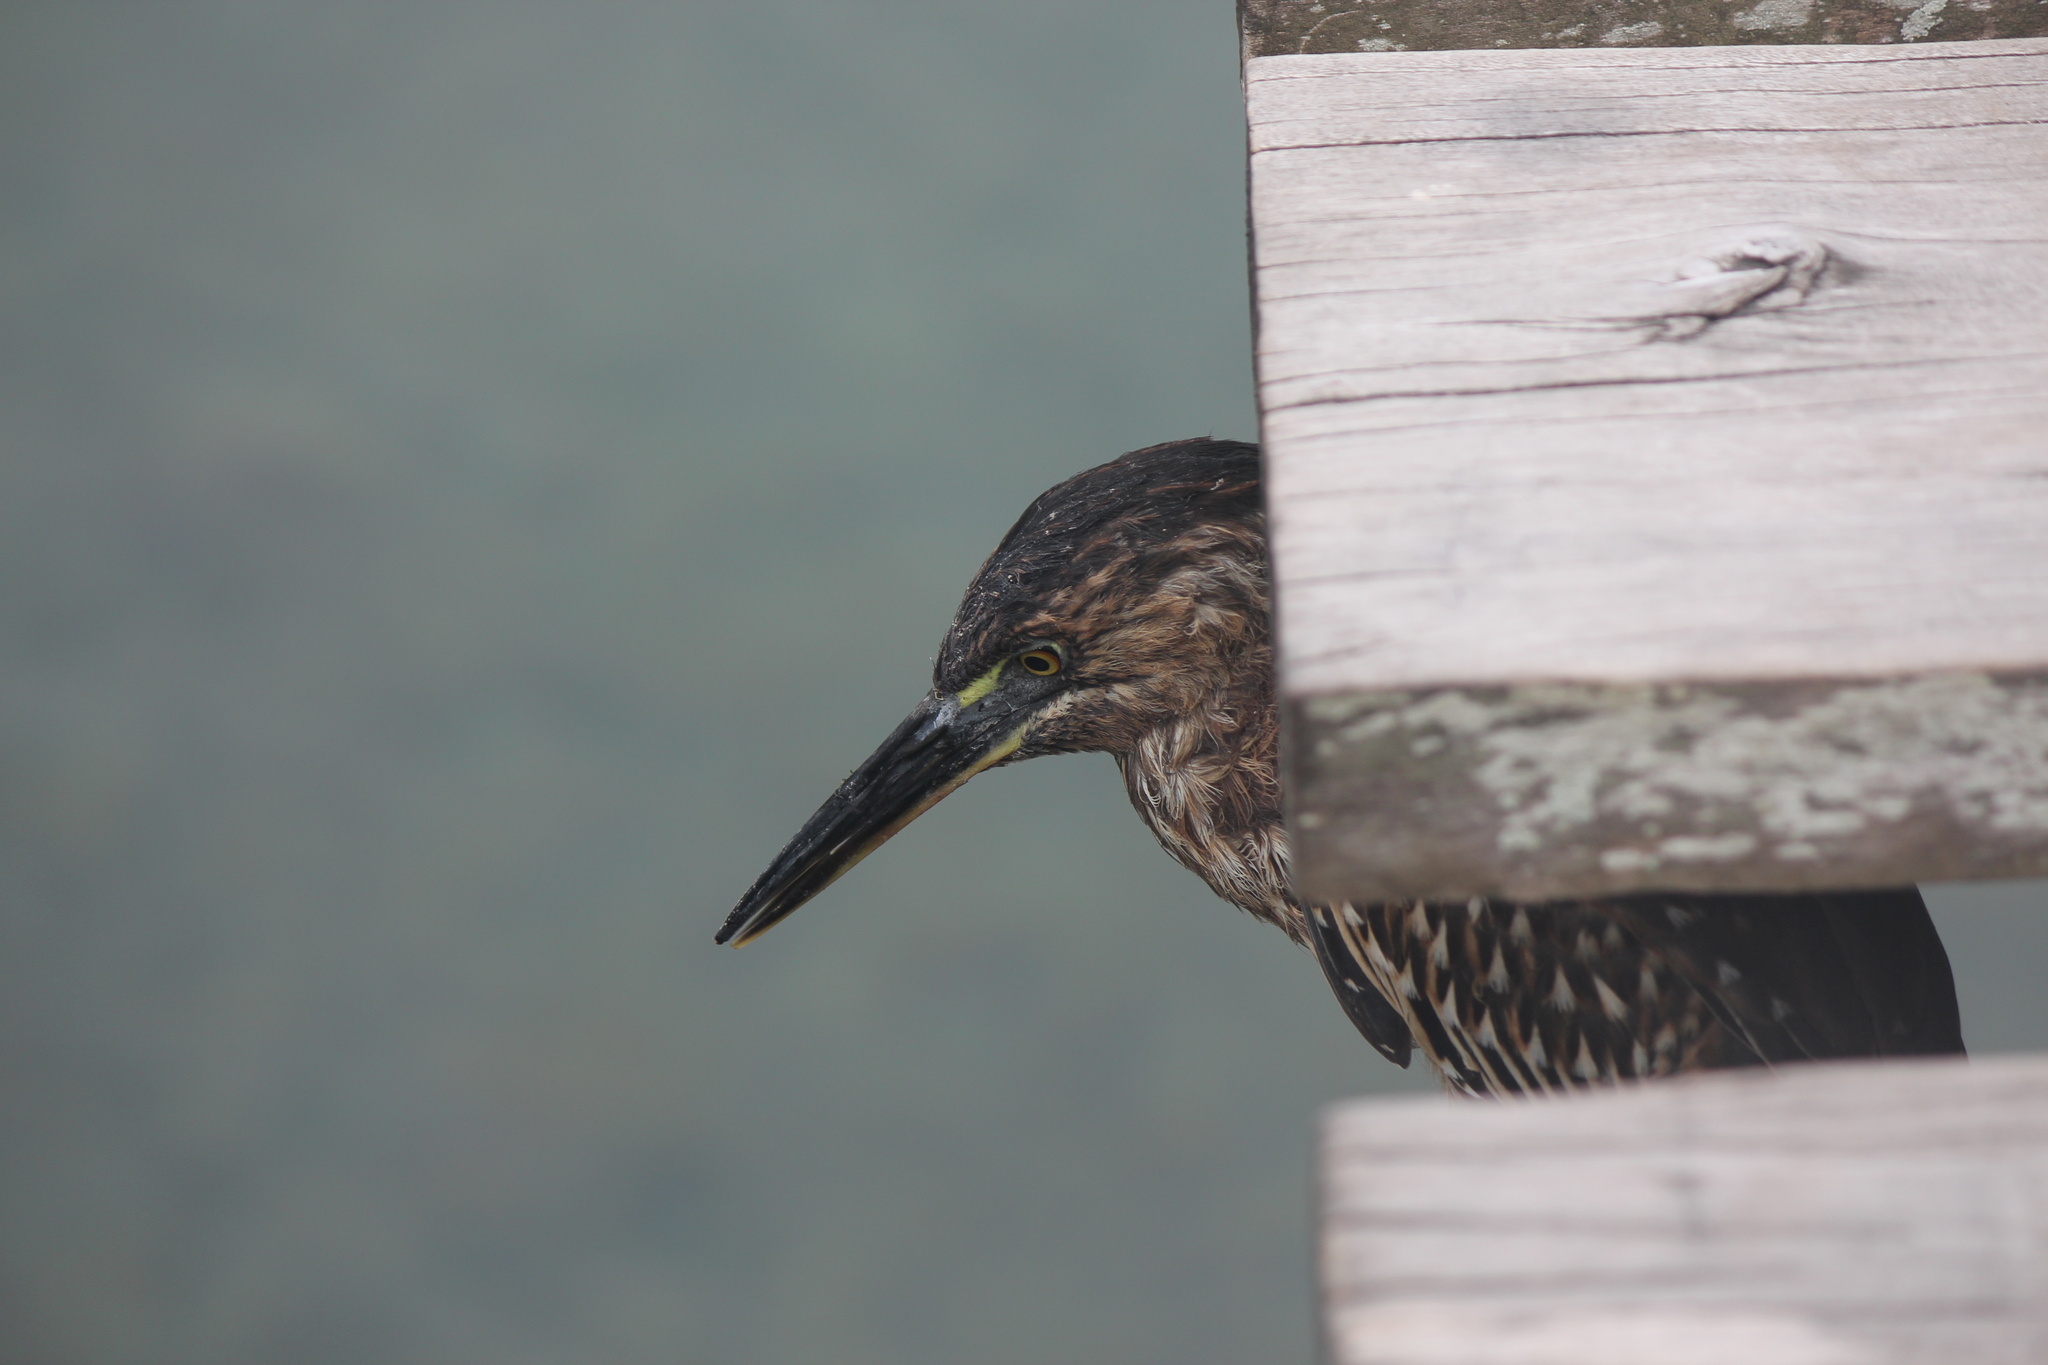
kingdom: Animalia
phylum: Chordata
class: Aves
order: Pelecaniformes
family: Ardeidae
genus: Butorides
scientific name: Butorides striata
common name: Striated heron
